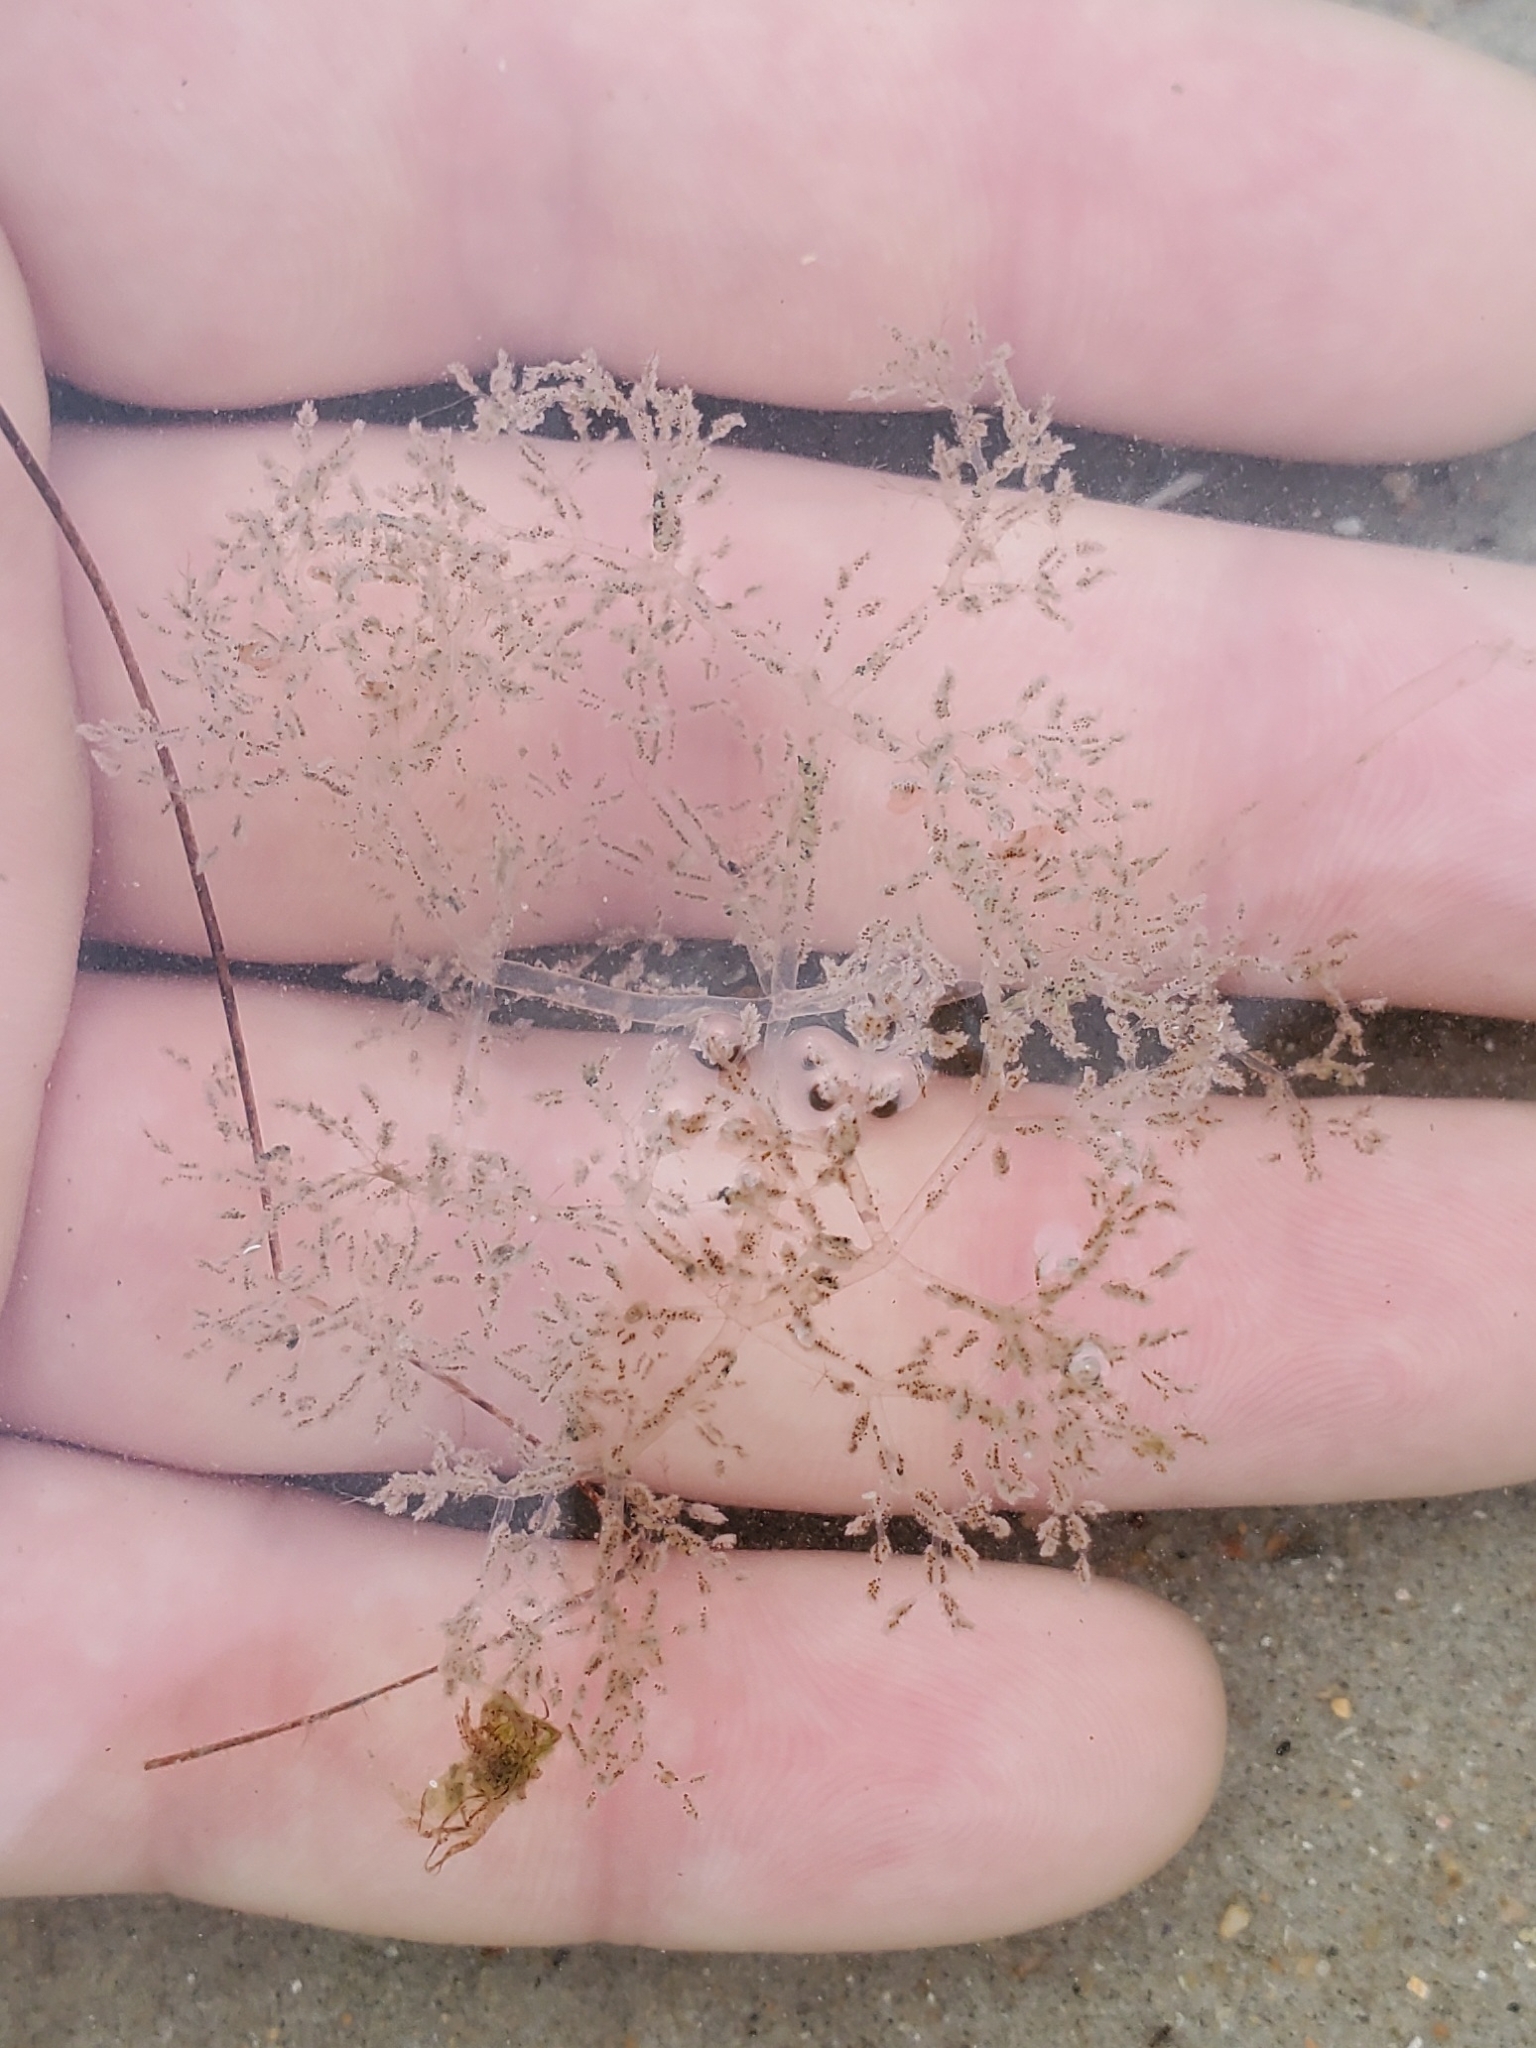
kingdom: Animalia
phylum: Bryozoa
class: Gymnolaemata
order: Ctenostomatida
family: Vesiculariidae
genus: Amathia
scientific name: Amathia verticillata
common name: Whorled zoobotryon
